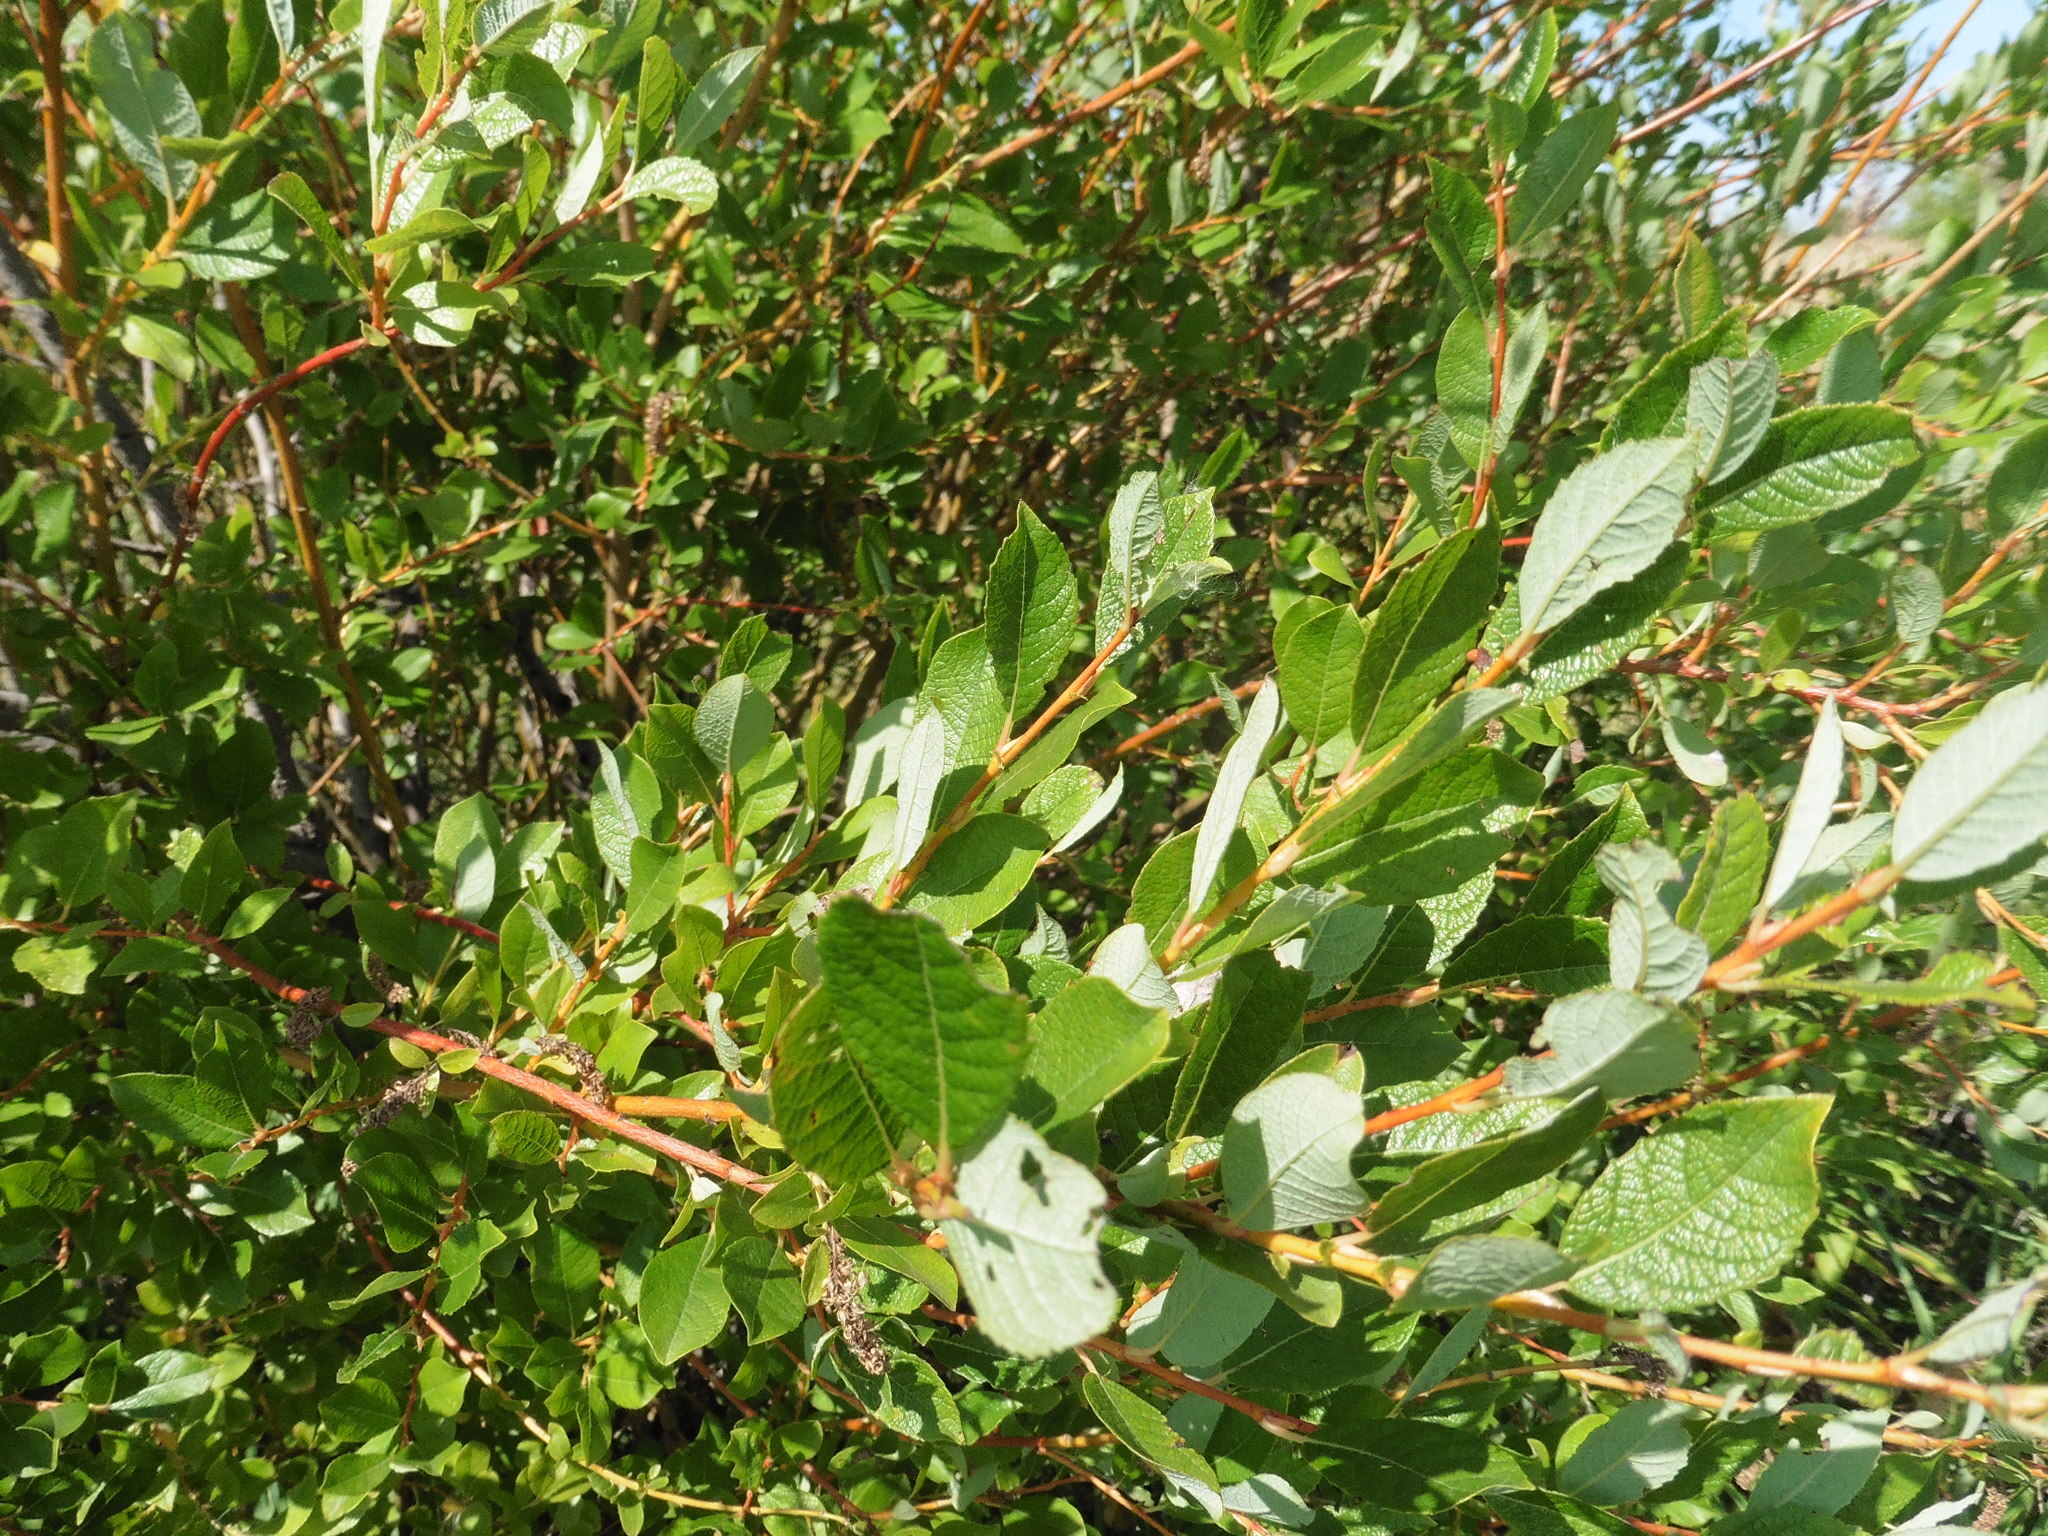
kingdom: Plantae
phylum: Tracheophyta
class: Magnoliopsida
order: Malpighiales
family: Salicaceae
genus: Salix
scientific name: Salix starkeana
